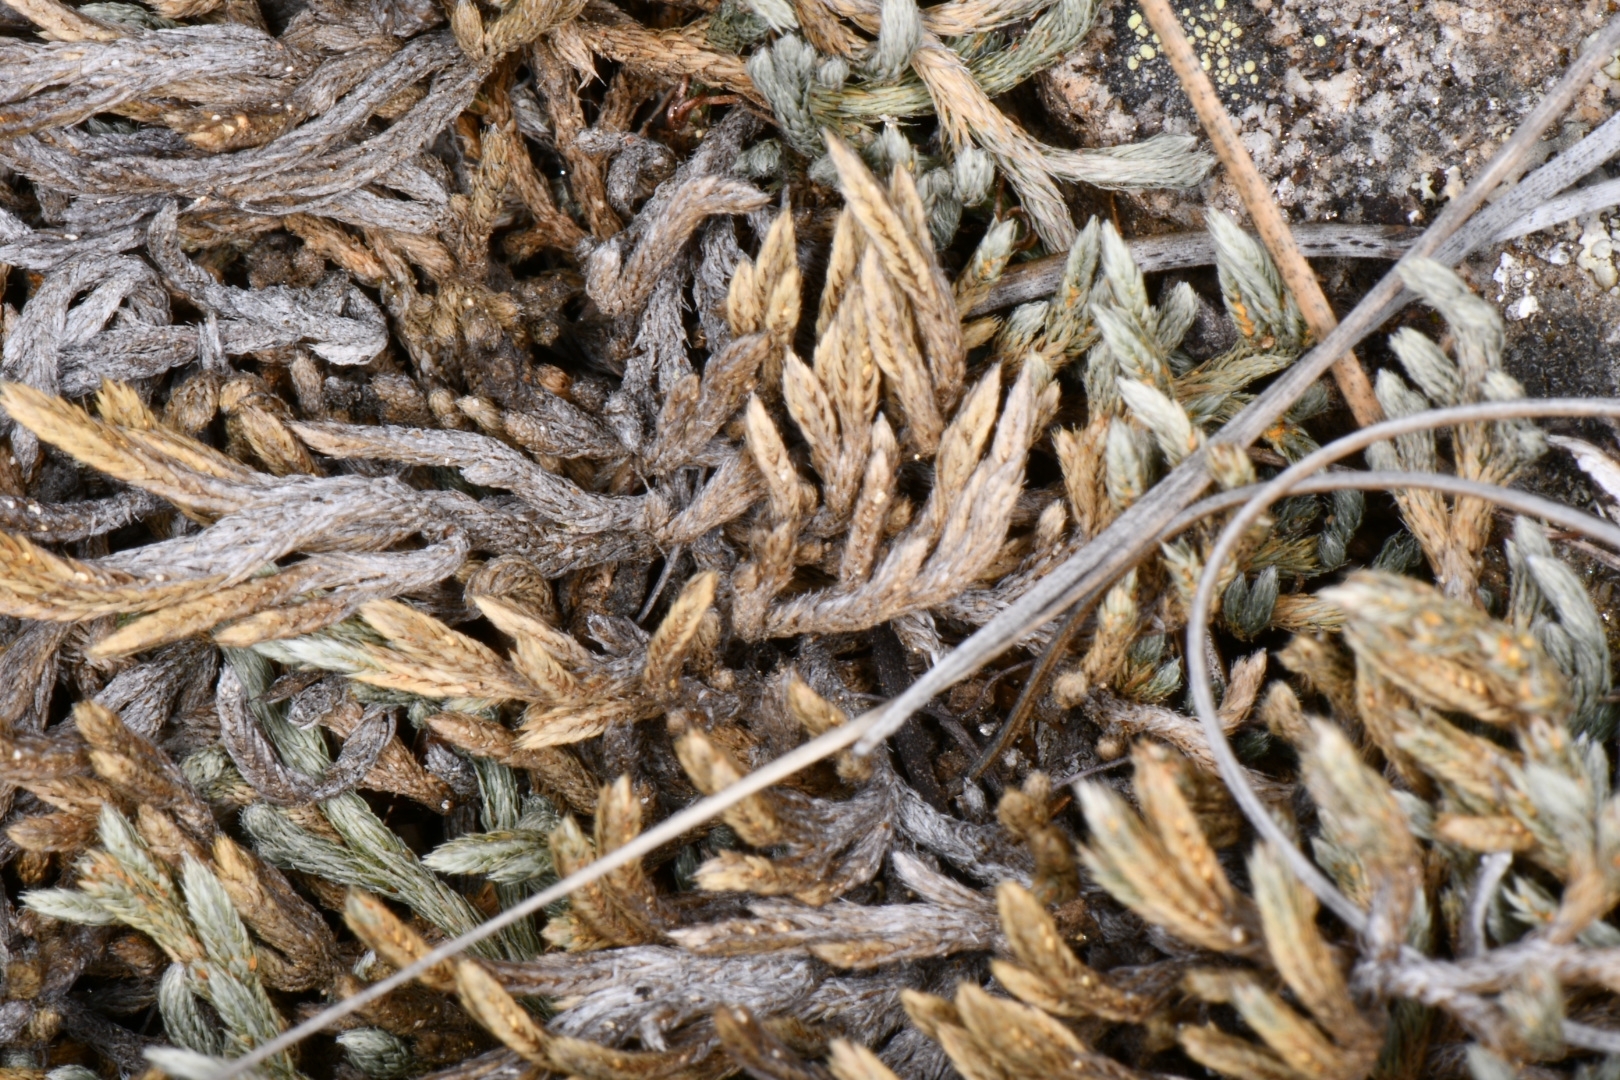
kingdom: Plantae
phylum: Tracheophyta
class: Lycopodiopsida
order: Selaginellales
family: Selaginellaceae
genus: Selaginella
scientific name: Selaginella wallacei
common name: Wallace's selaginella
